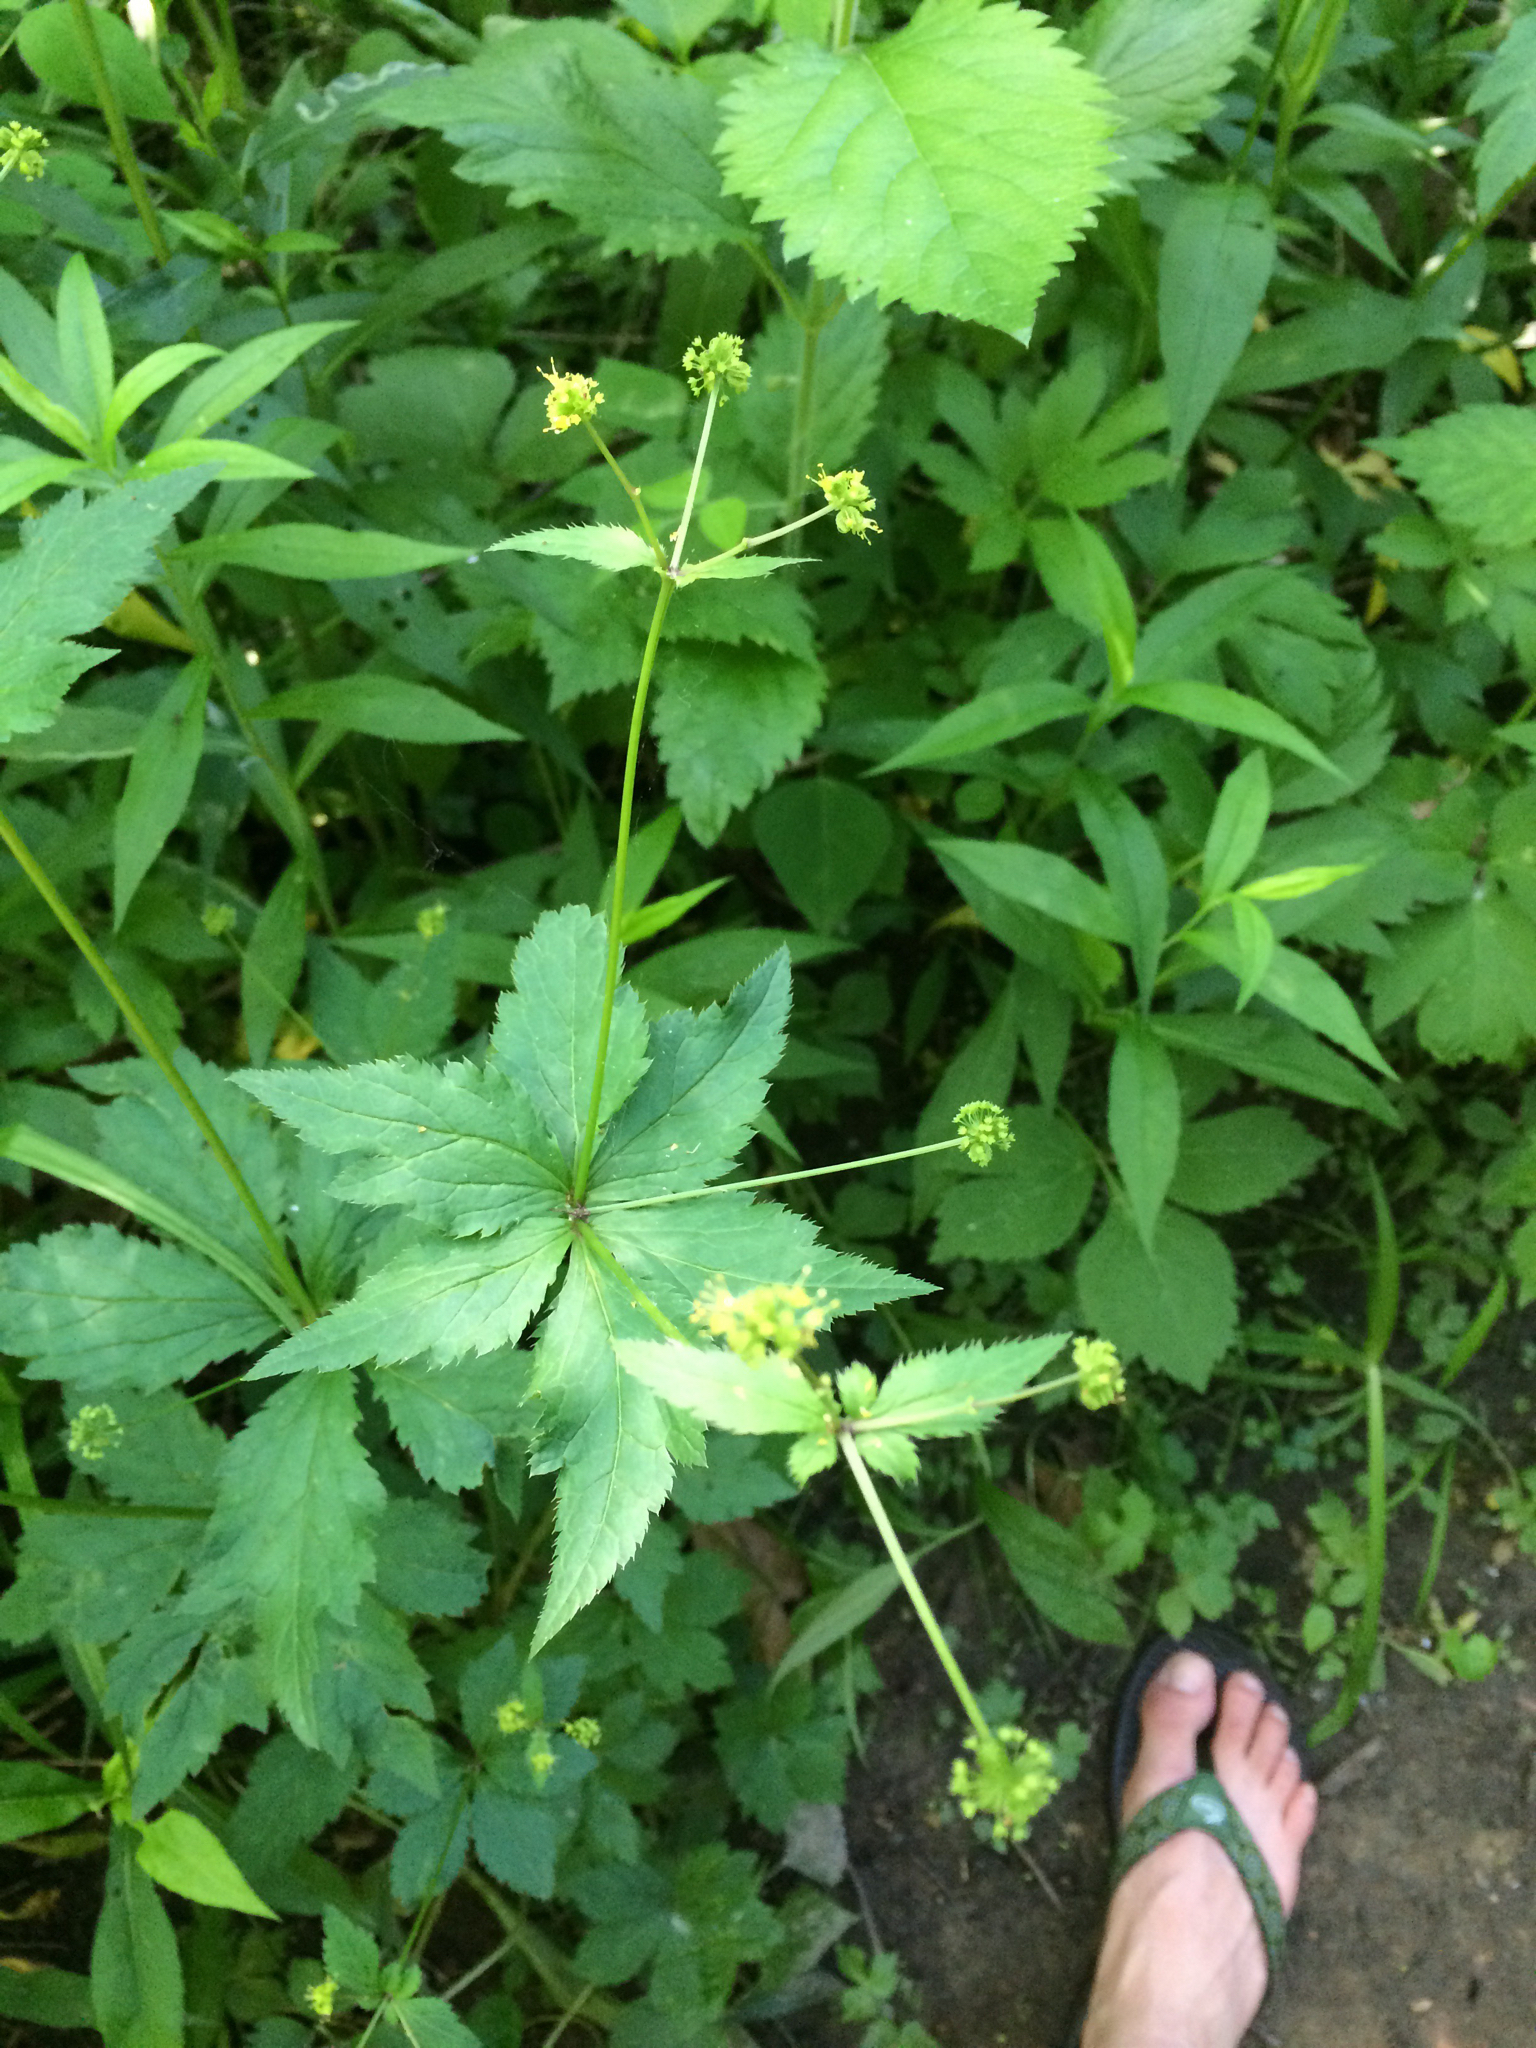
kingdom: Plantae
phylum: Tracheophyta
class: Magnoliopsida
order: Apiales
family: Apiaceae
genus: Sanicula
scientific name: Sanicula odorata
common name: Cluster sanicle
